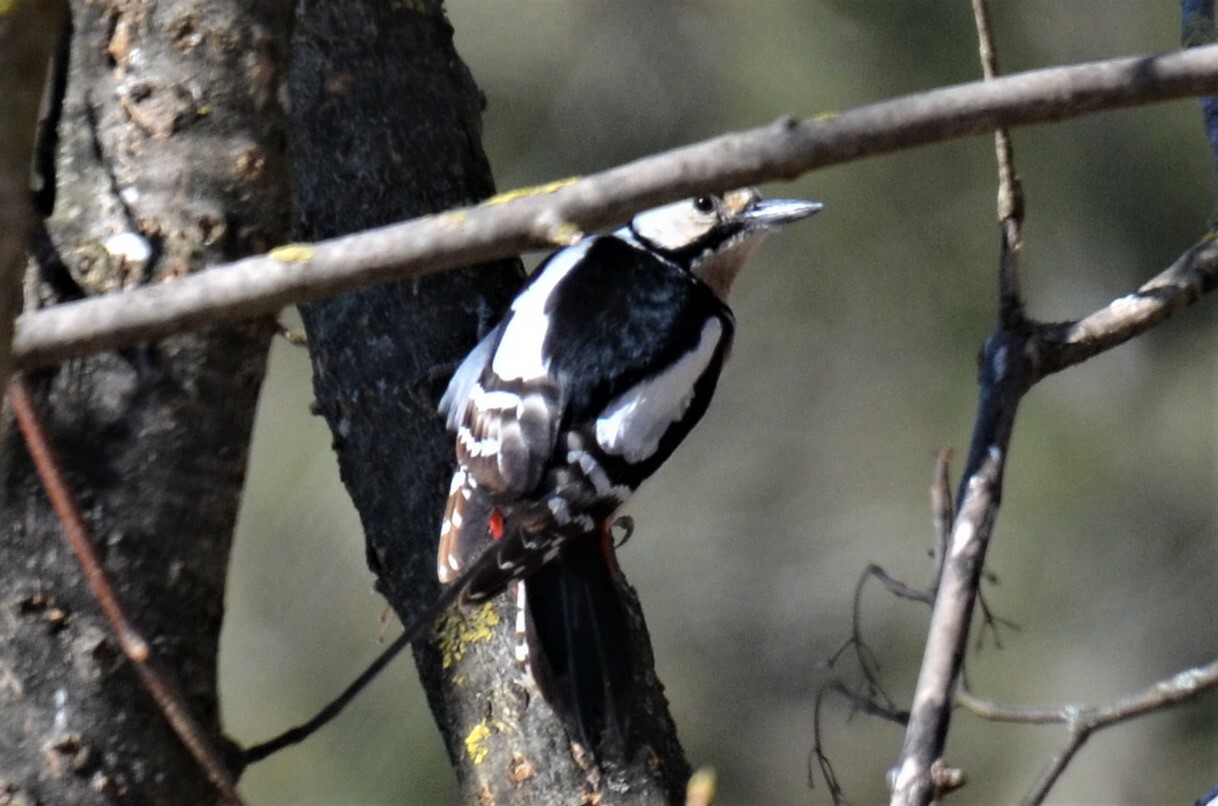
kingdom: Animalia
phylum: Chordata
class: Aves
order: Piciformes
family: Picidae
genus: Dendrocopos
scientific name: Dendrocopos major
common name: Great spotted woodpecker
